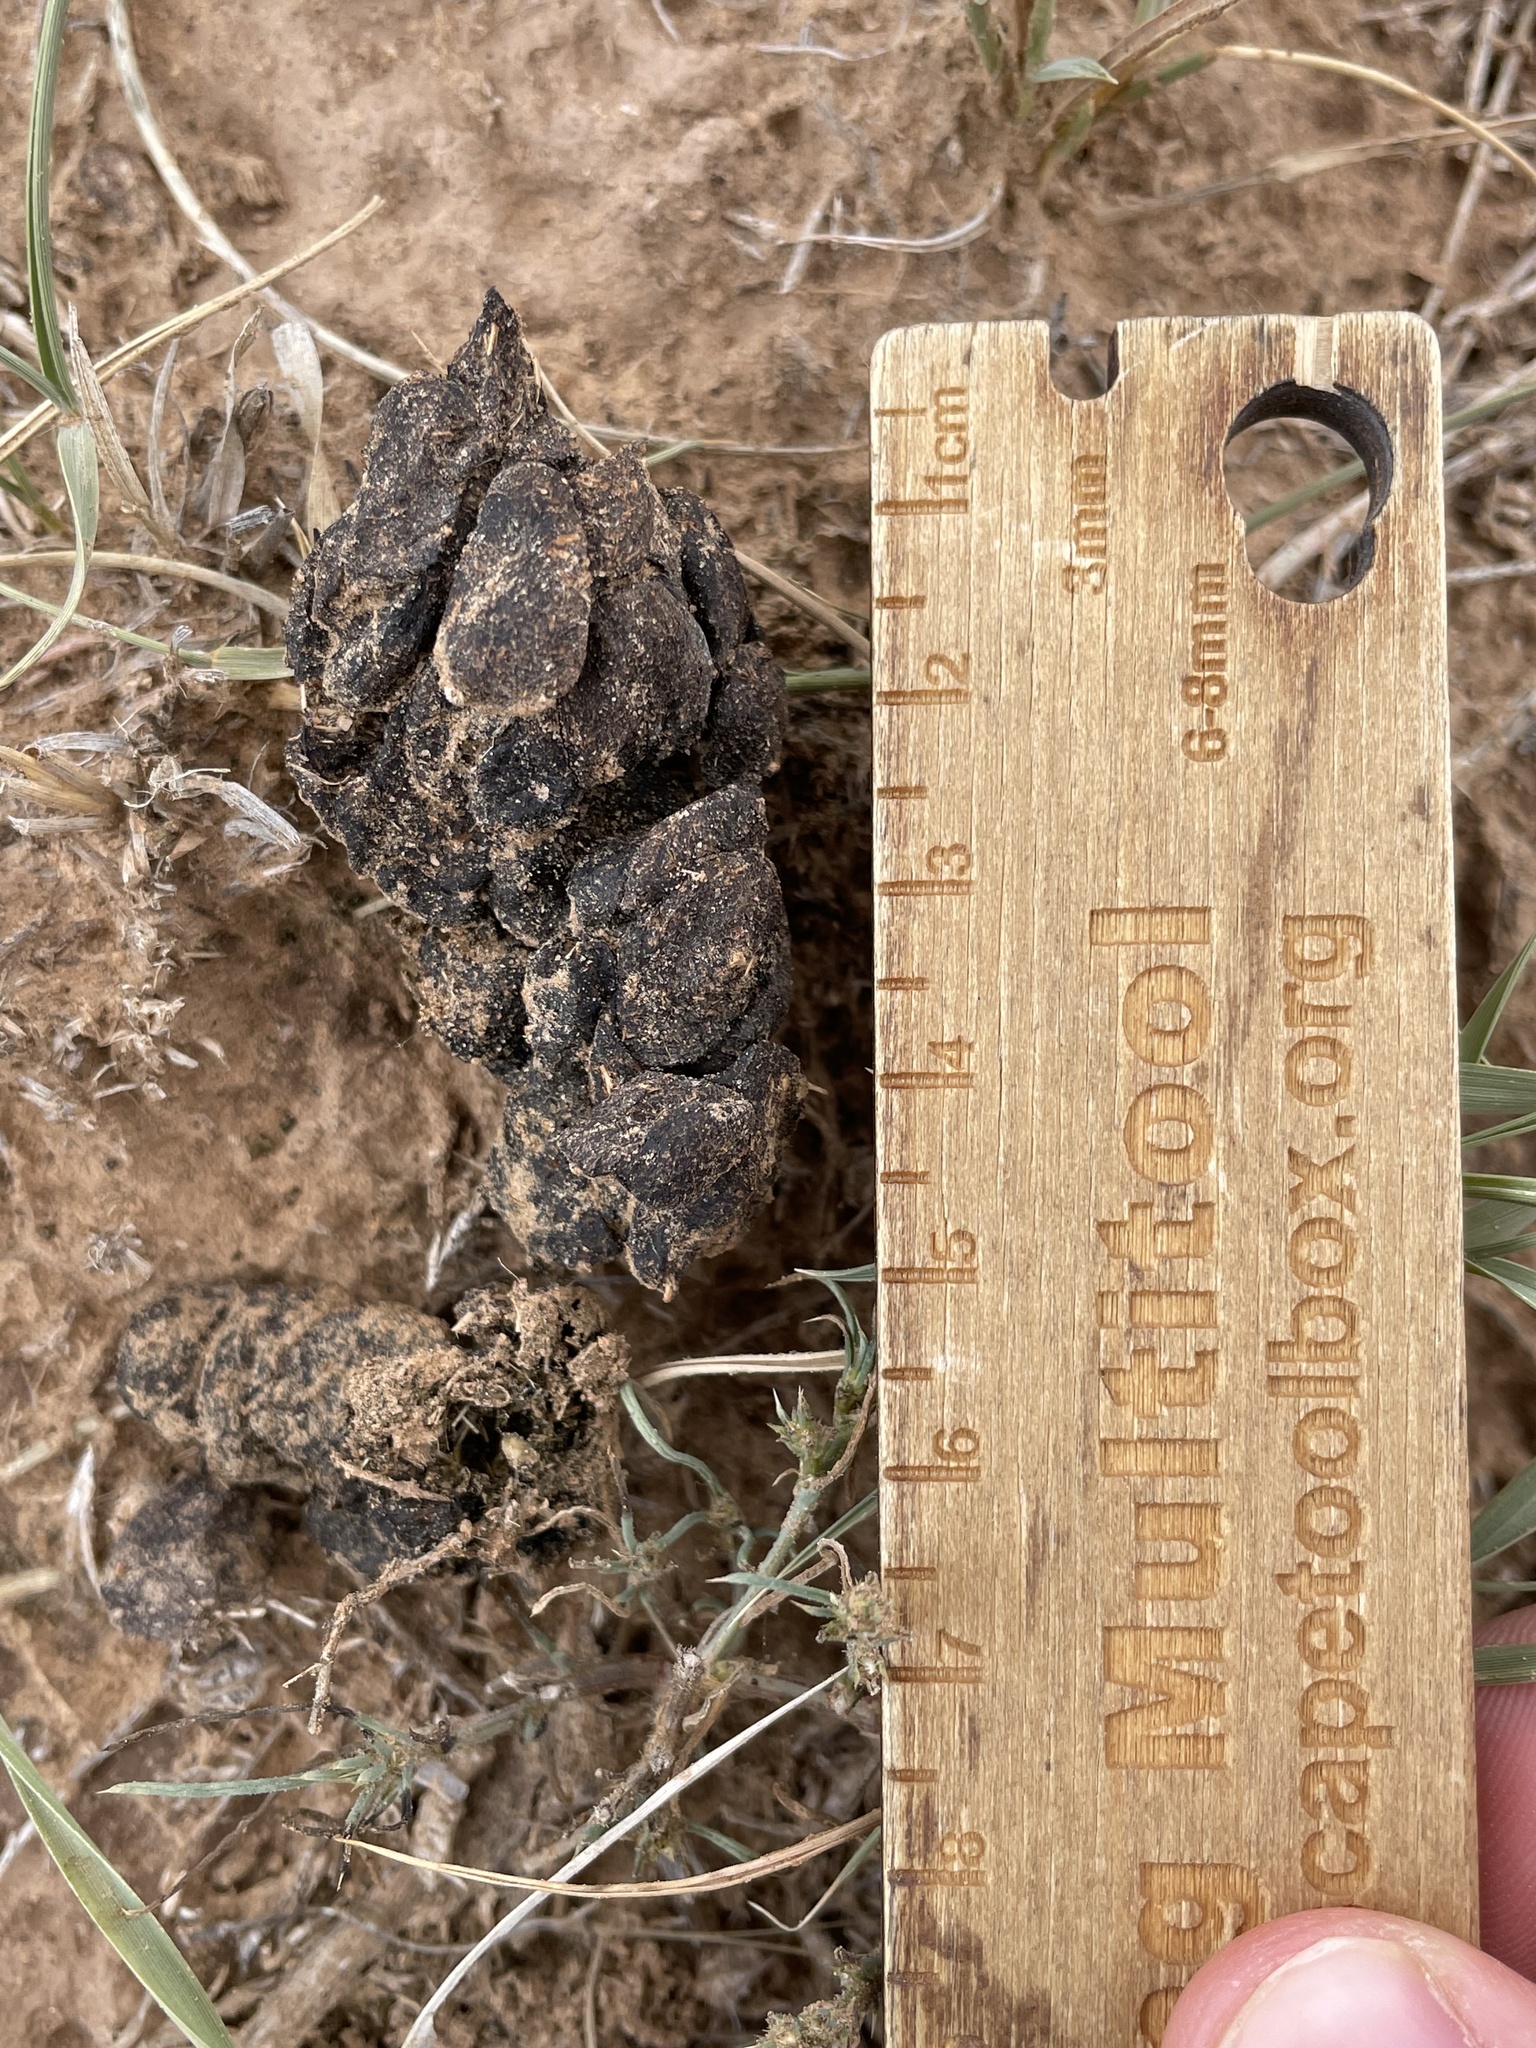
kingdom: Animalia
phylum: Chordata
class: Mammalia
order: Artiodactyla
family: Antilocapridae
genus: Antilocapra
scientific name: Antilocapra americana
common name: Pronghorn
